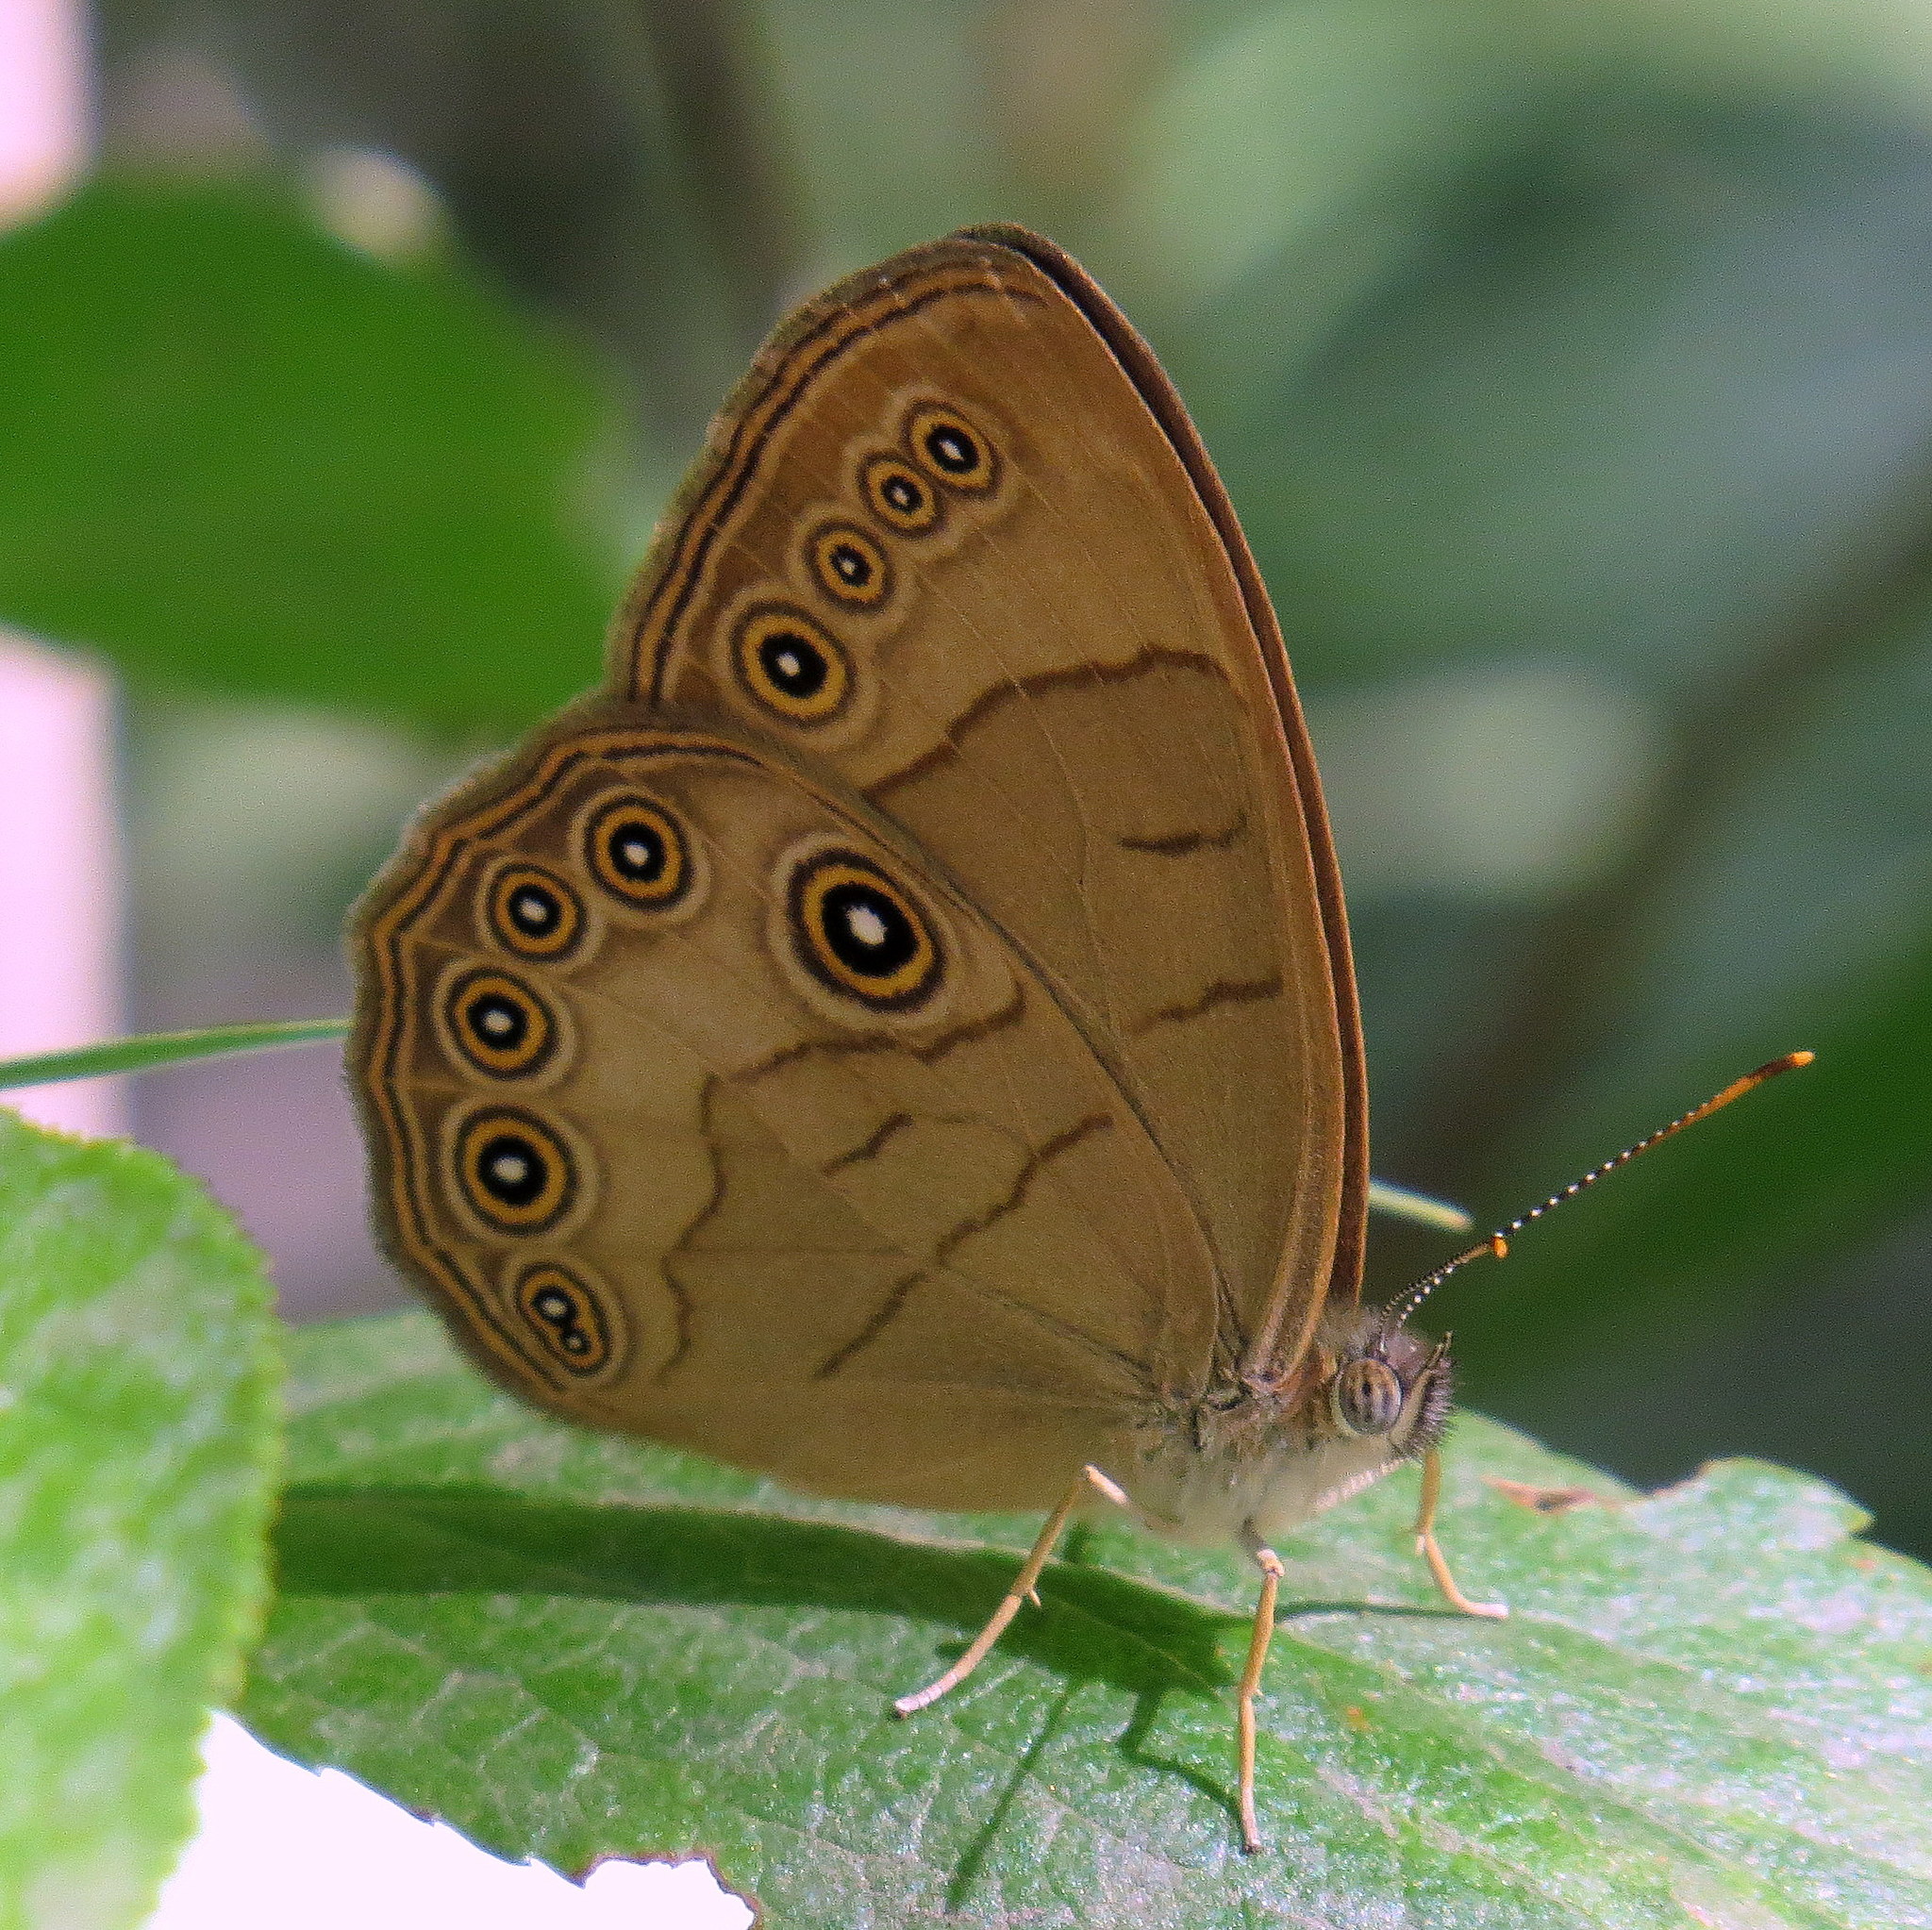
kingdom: Animalia
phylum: Arthropoda
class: Insecta
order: Lepidoptera
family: Nymphalidae
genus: Lethe
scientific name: Lethe eurydice
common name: Eyed brown
